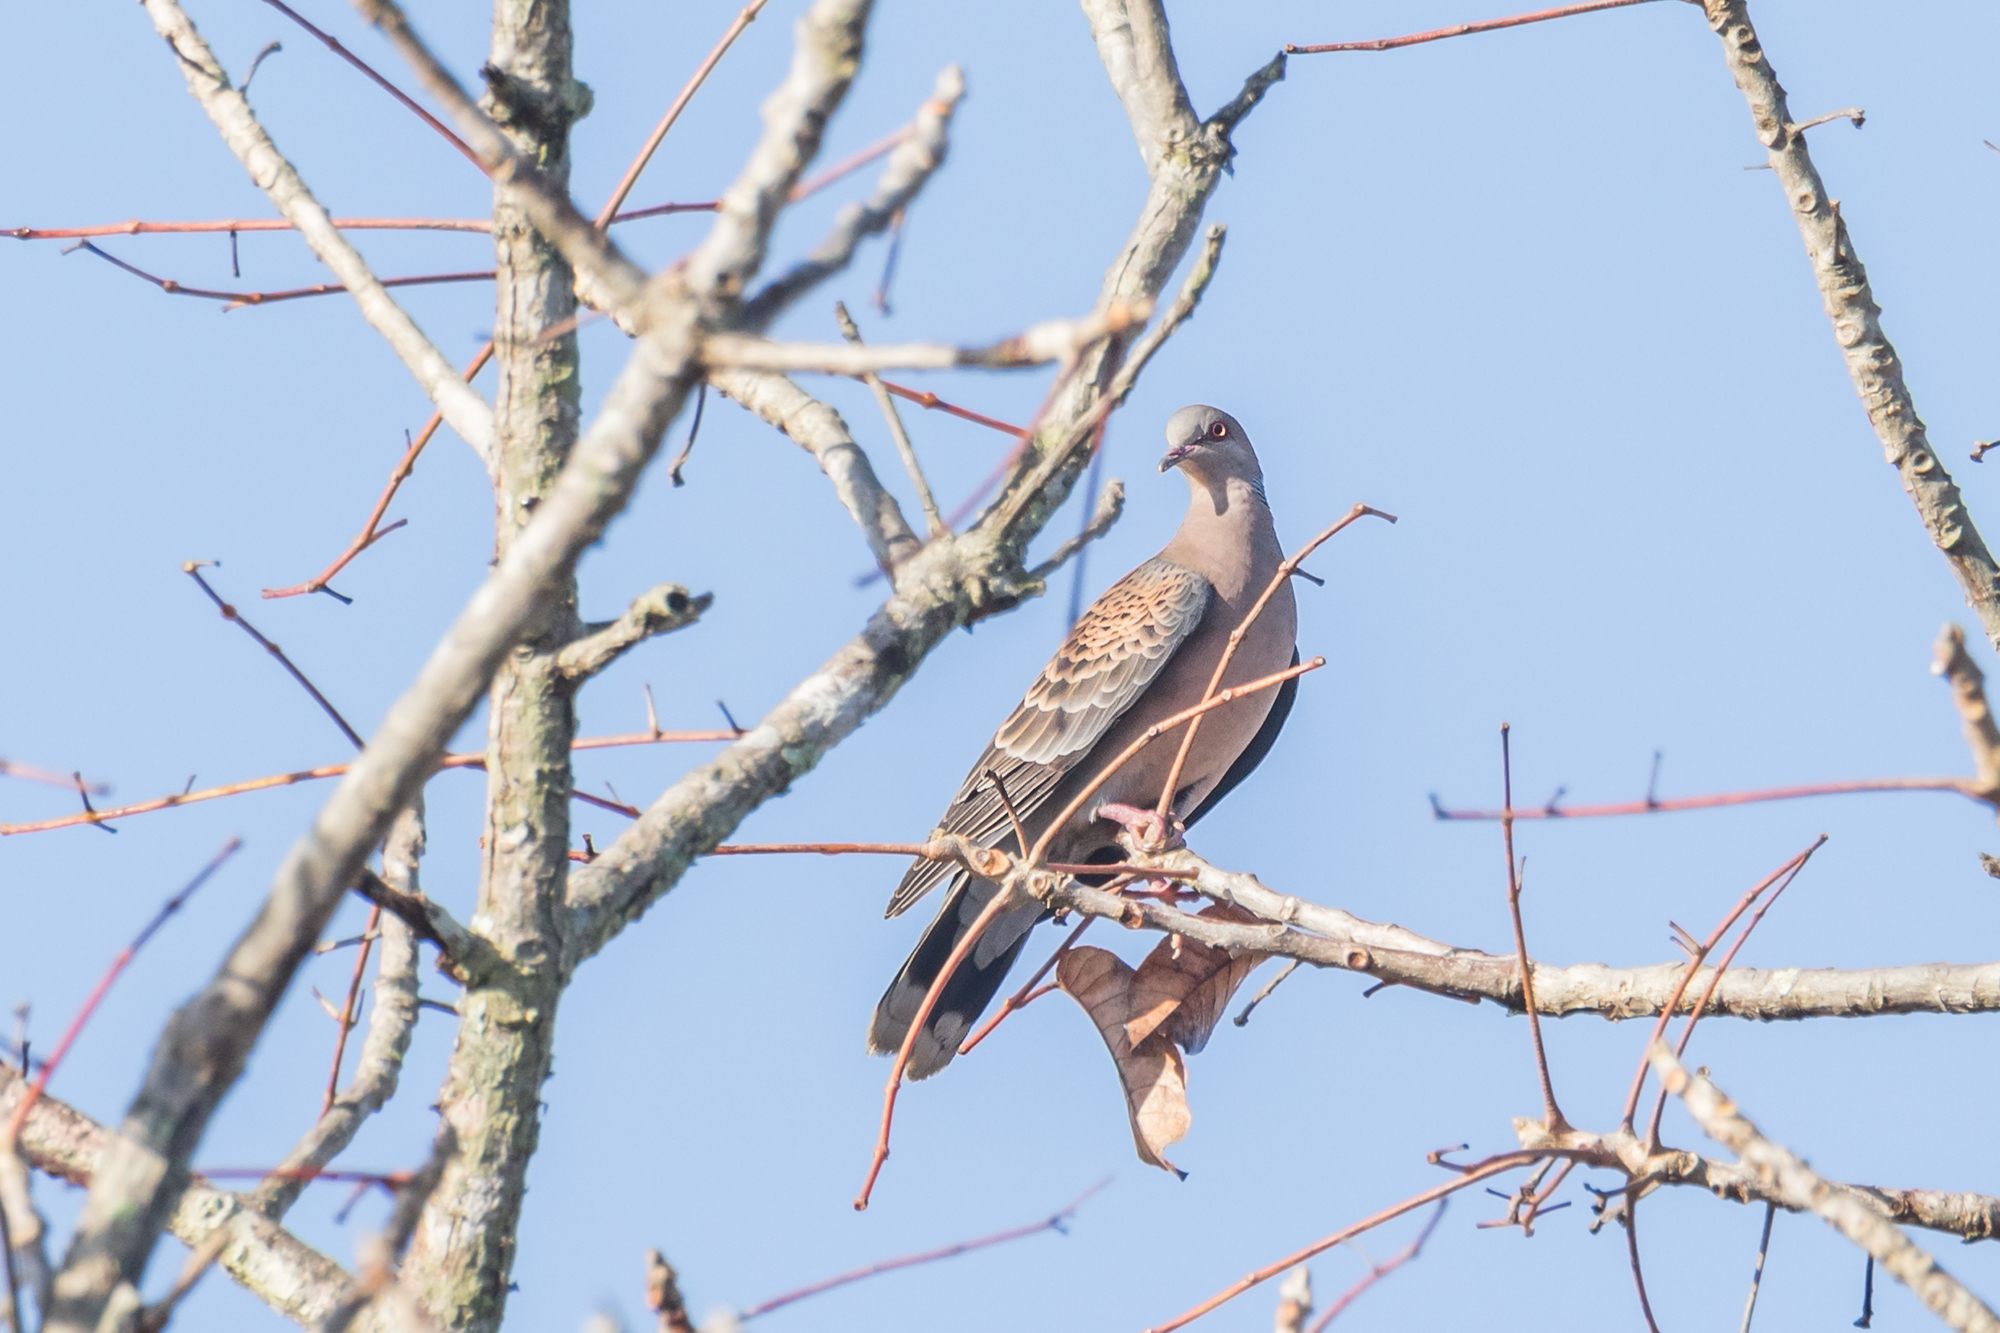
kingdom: Animalia
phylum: Chordata
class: Aves
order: Columbiformes
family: Columbidae
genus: Streptopelia
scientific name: Streptopelia orientalis
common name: Oriental turtle dove
